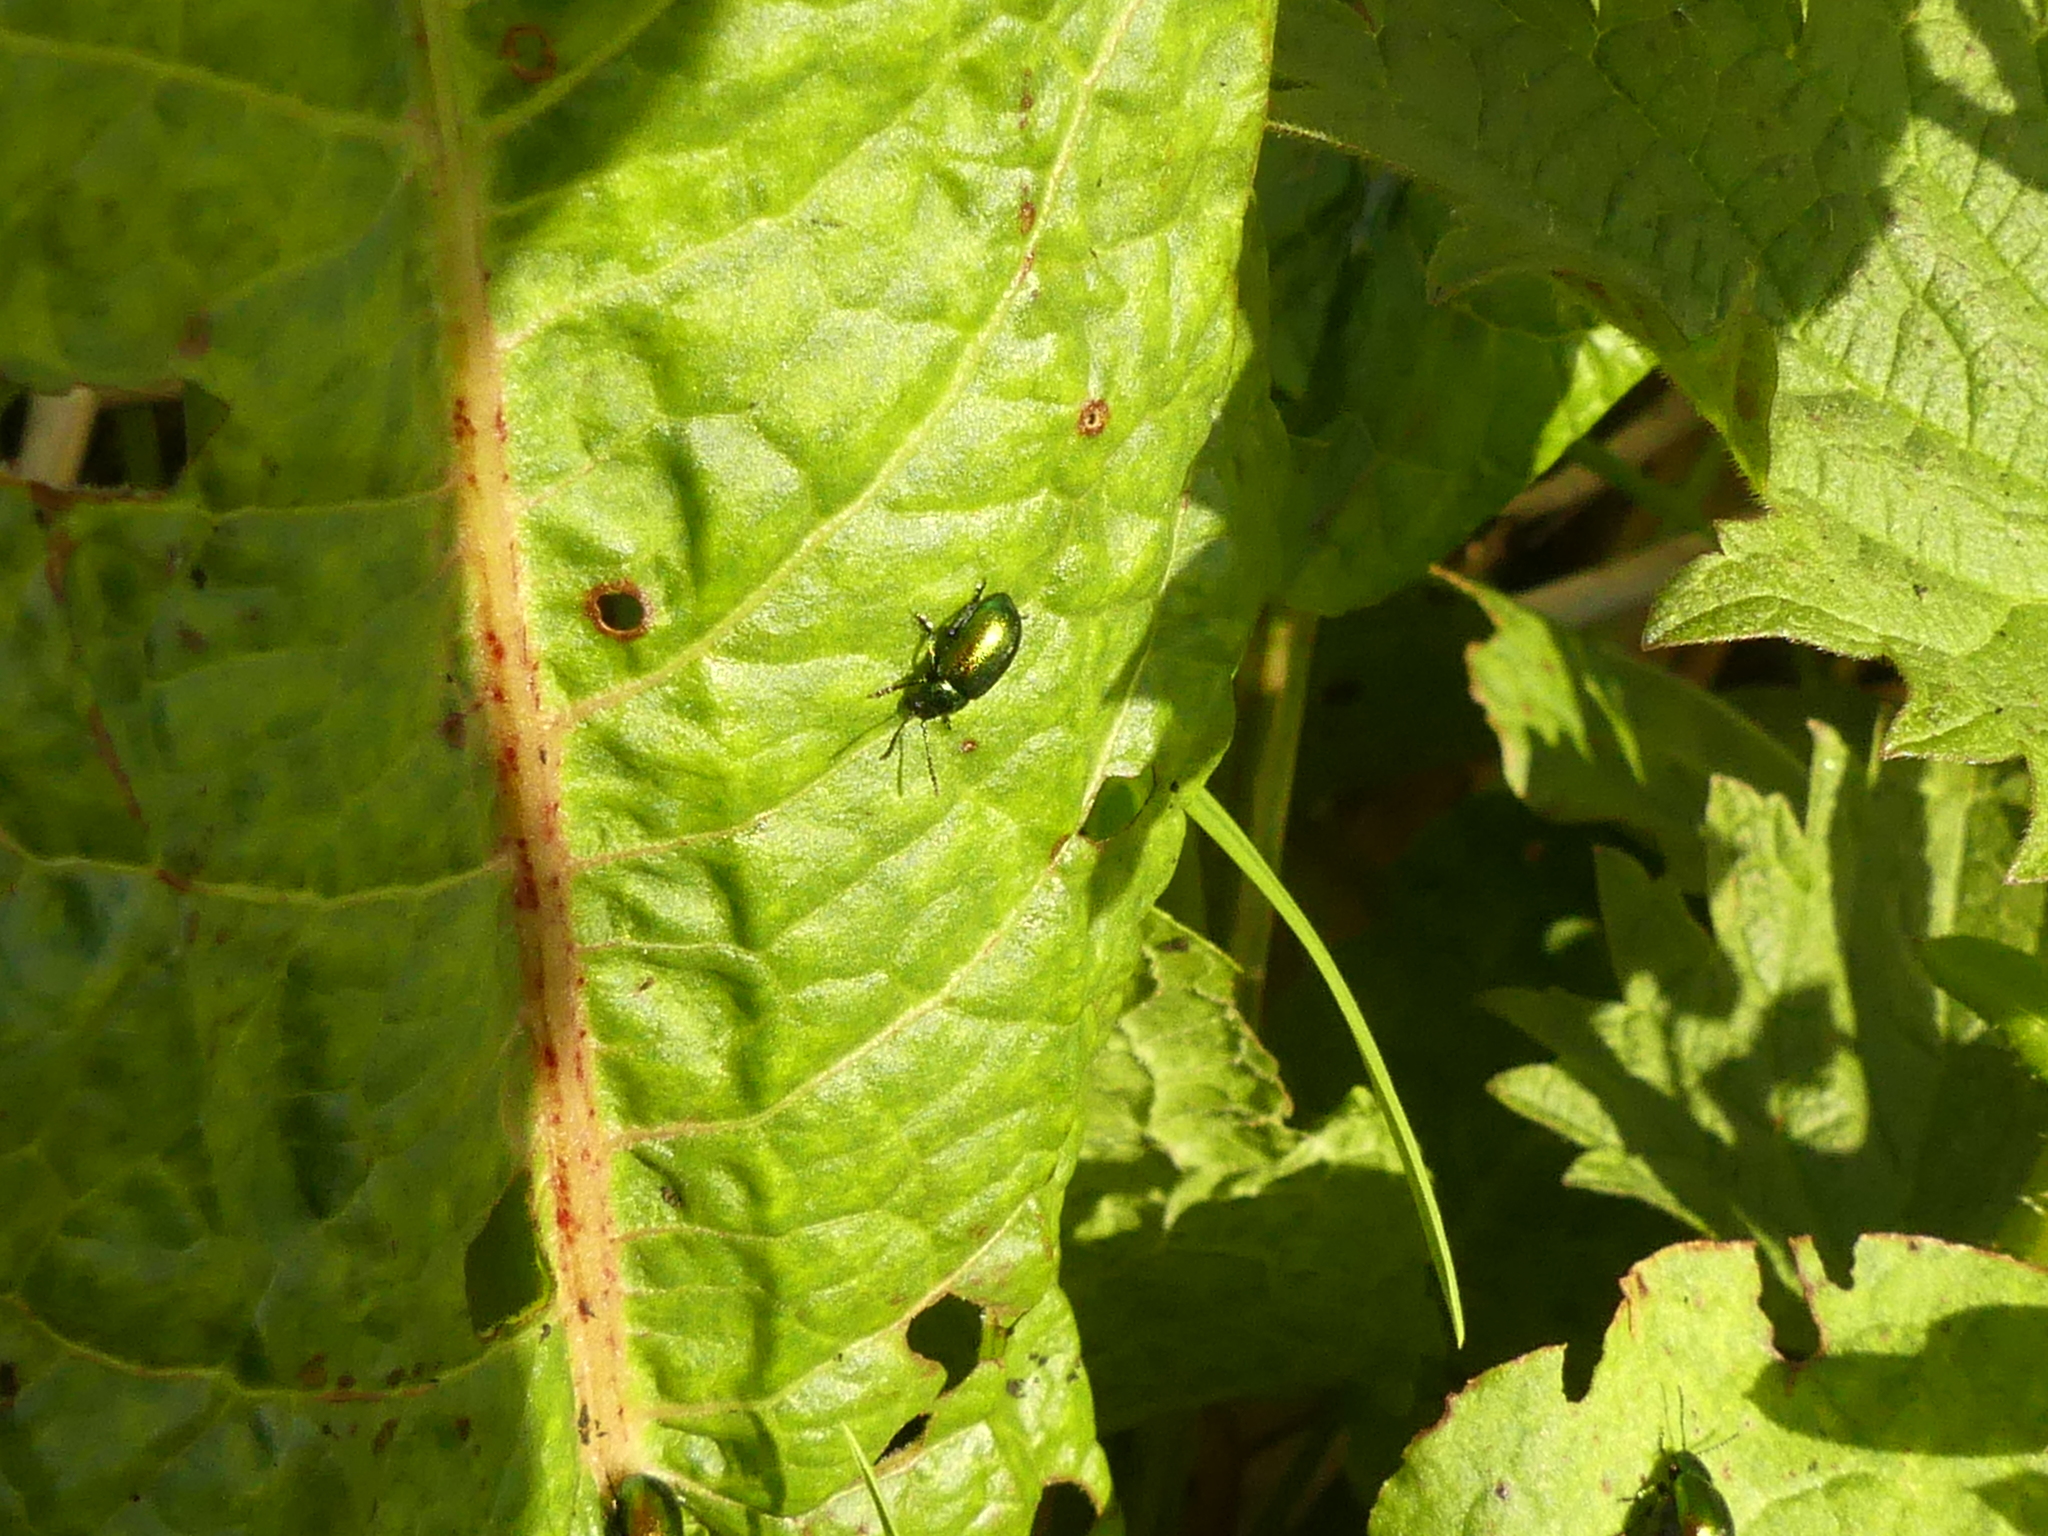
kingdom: Animalia
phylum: Arthropoda
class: Insecta
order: Coleoptera
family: Chrysomelidae
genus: Gastrophysa
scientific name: Gastrophysa viridula
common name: Green dock beetle
